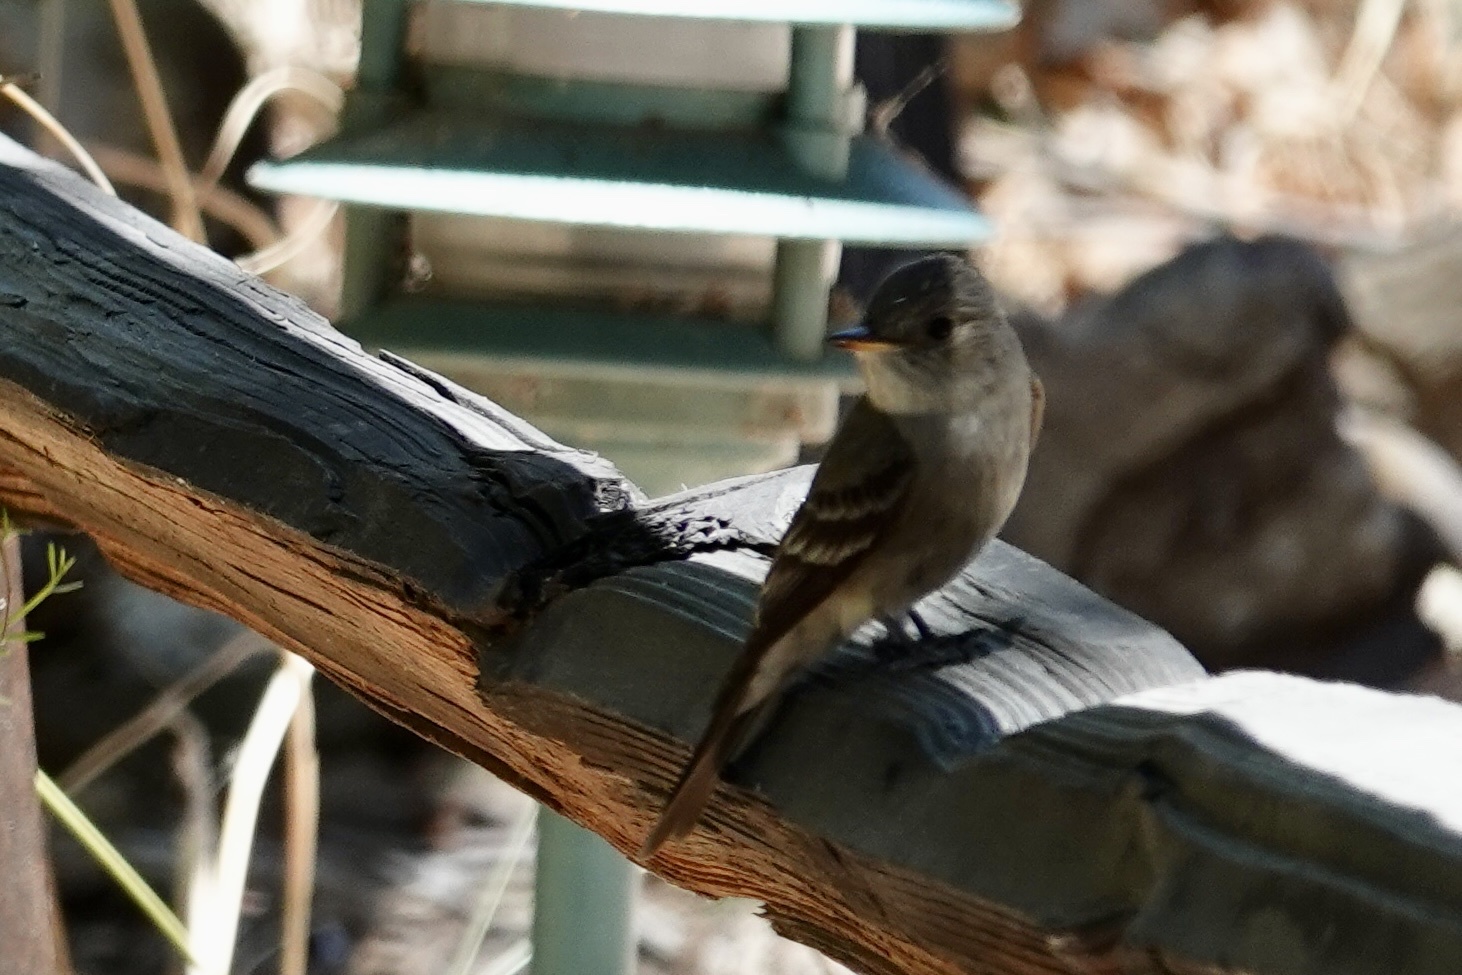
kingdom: Animalia
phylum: Chordata
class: Aves
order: Passeriformes
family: Tyrannidae
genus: Contopus
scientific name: Contopus sordidulus
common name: Western wood-pewee
